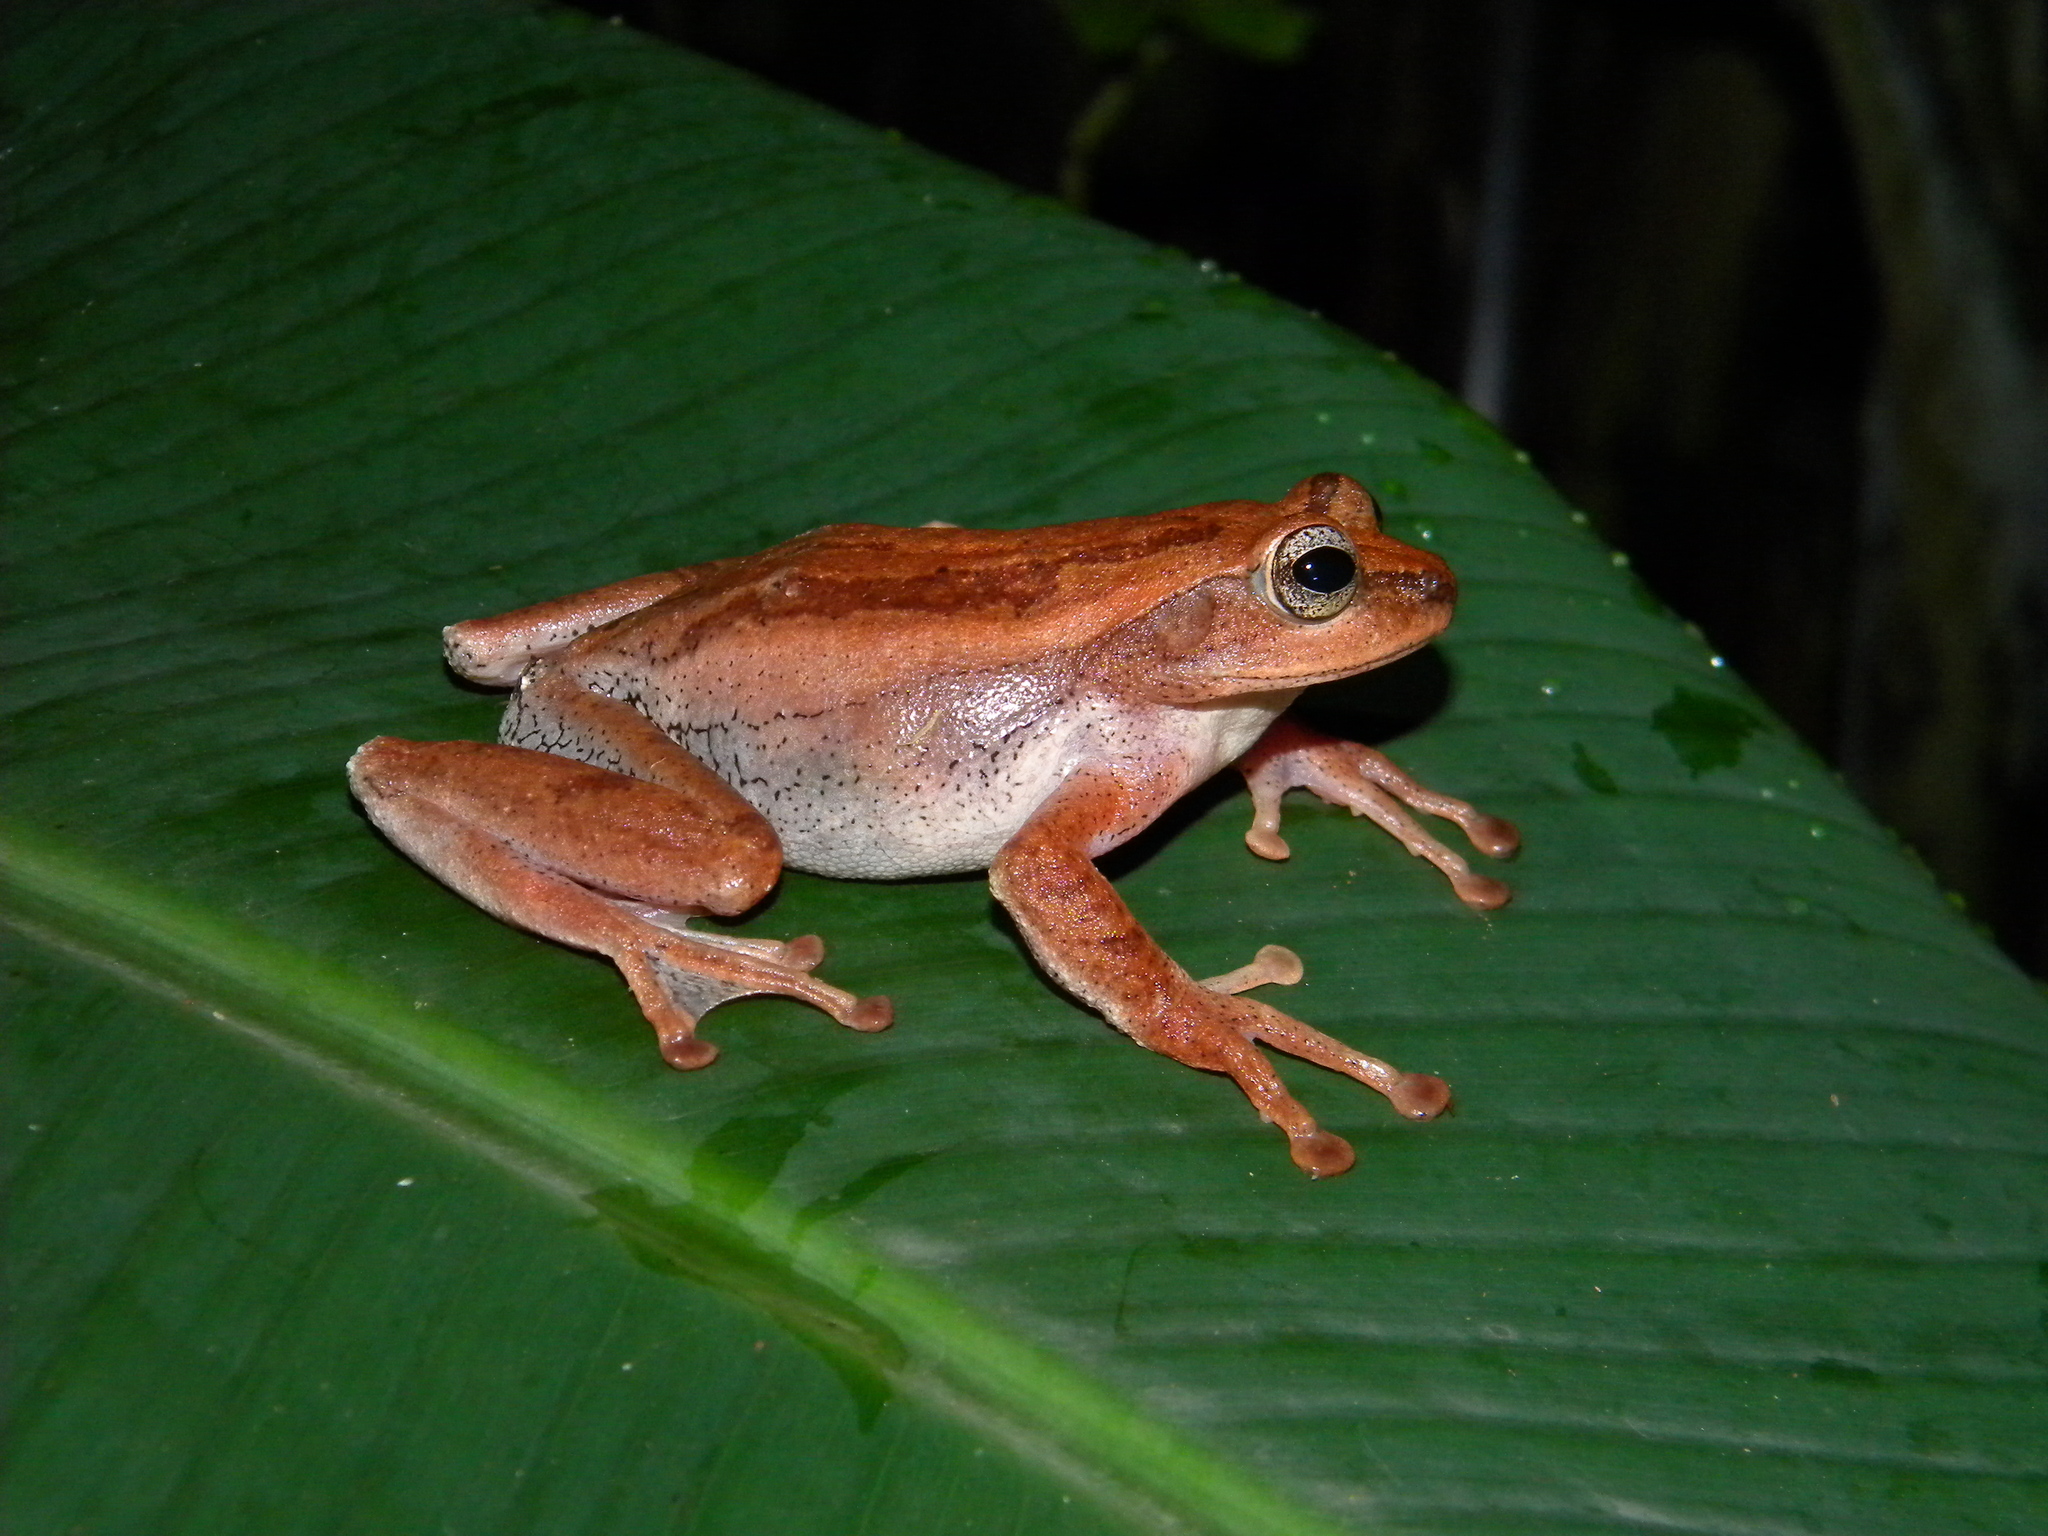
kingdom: Animalia
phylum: Chordata
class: Amphibia
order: Anura
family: Rhacophoridae
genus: Beddomixalus
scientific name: Beddomixalus bijui
